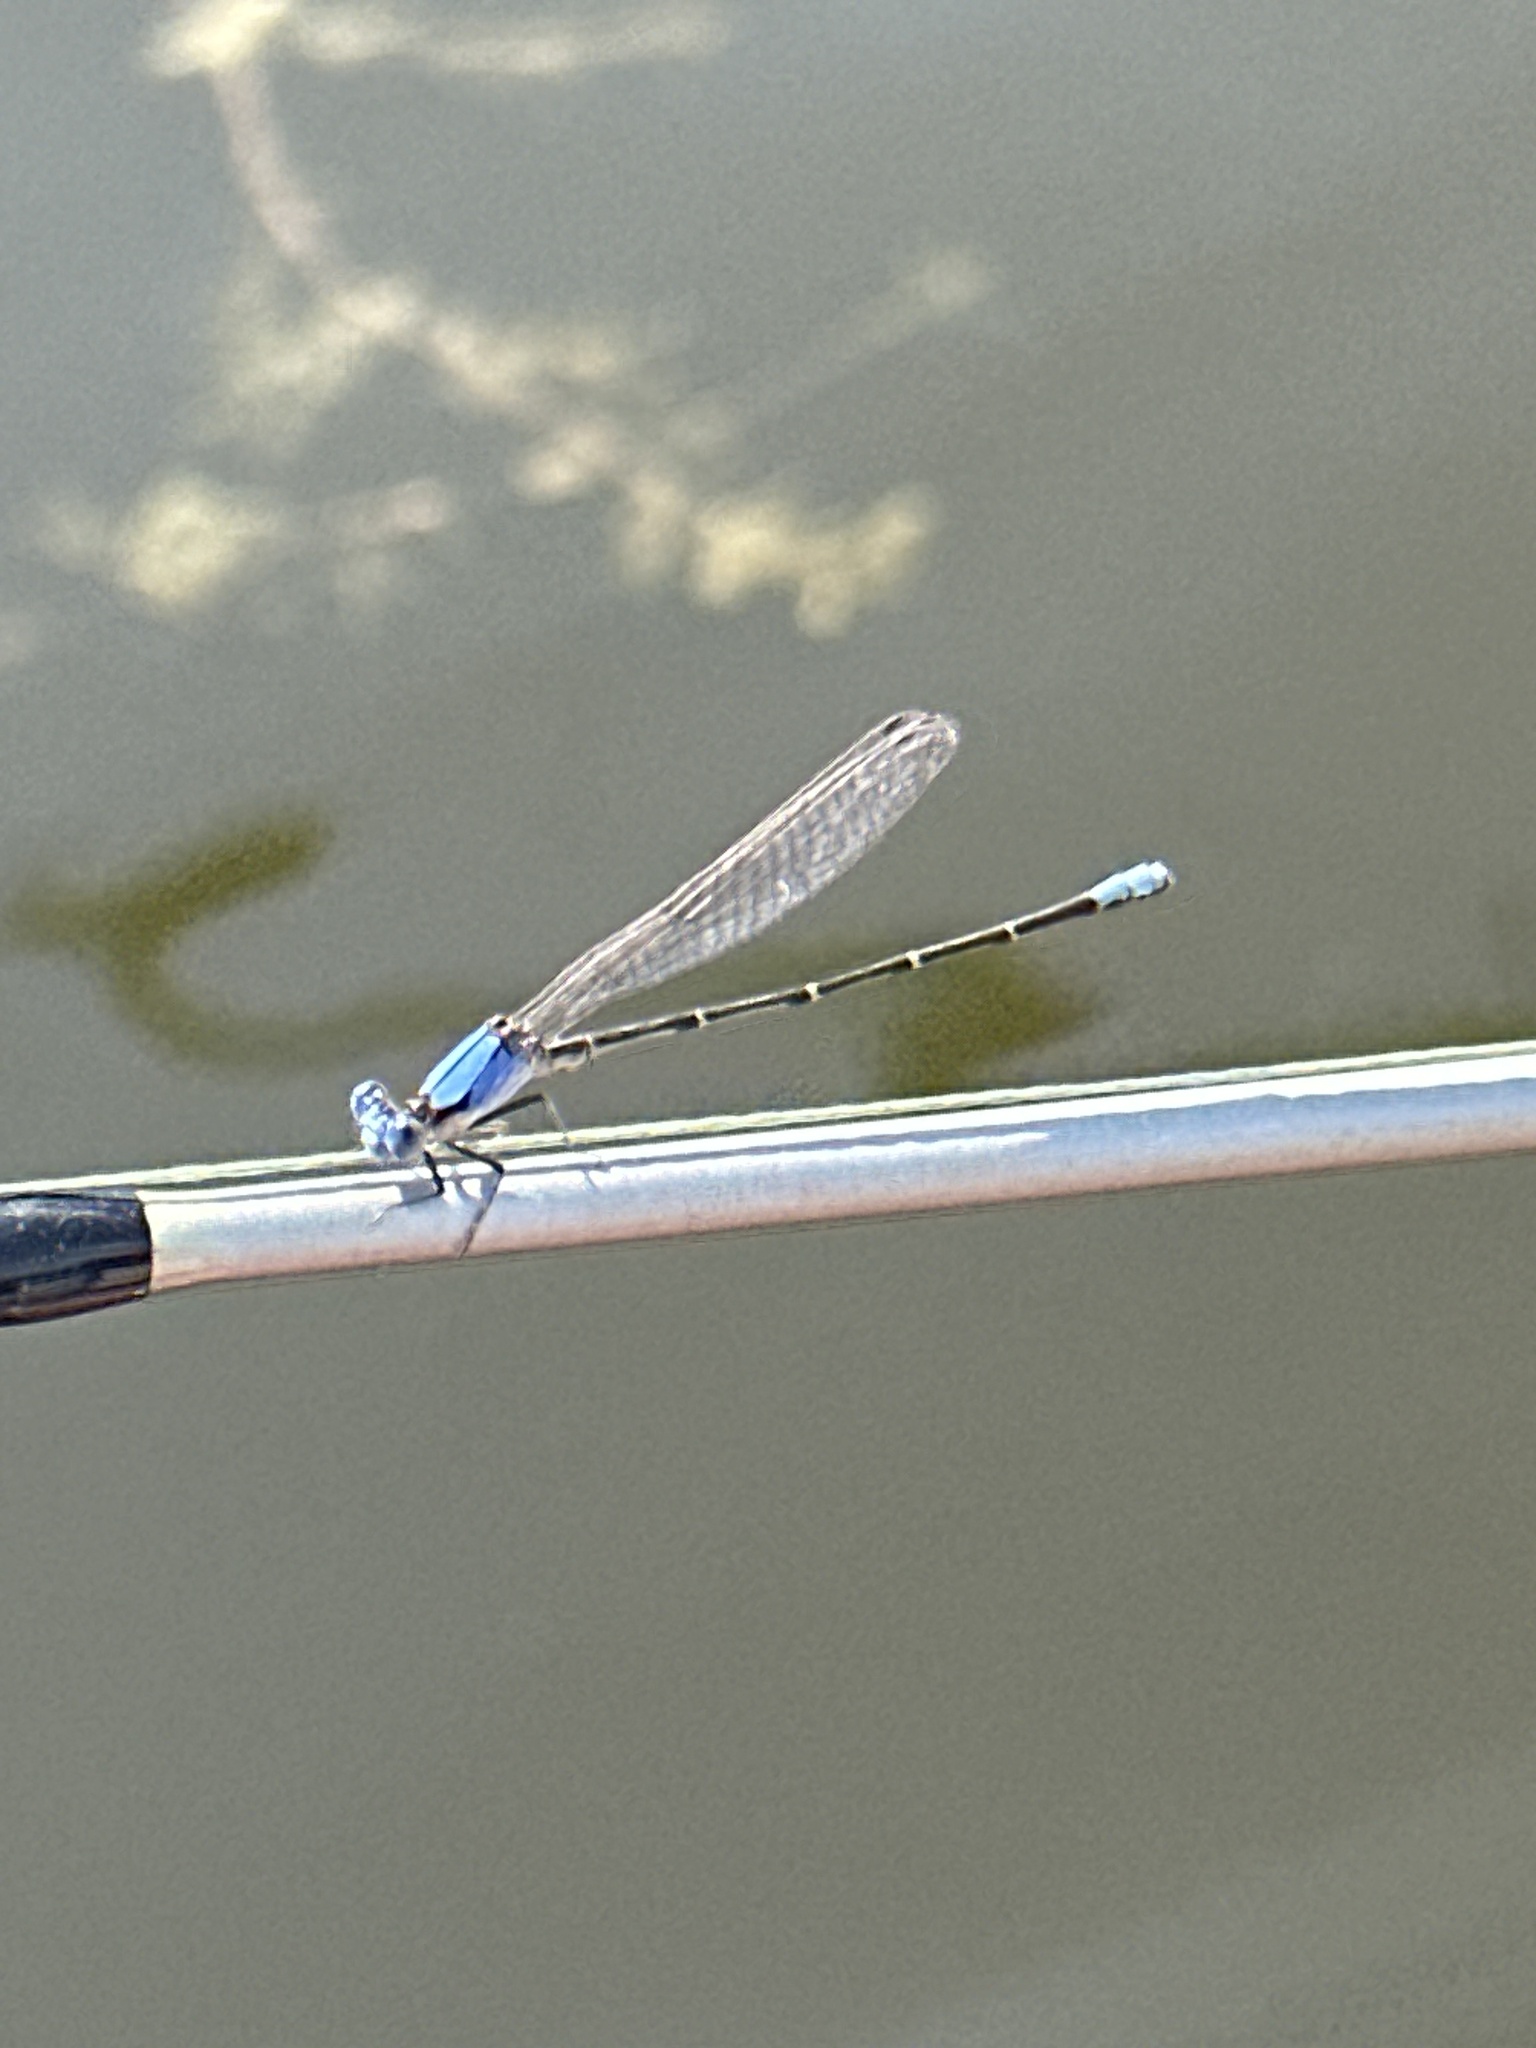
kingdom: Animalia
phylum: Arthropoda
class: Insecta
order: Odonata
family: Coenagrionidae
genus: Argia
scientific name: Argia apicalis
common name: Blue-fronted dancer
